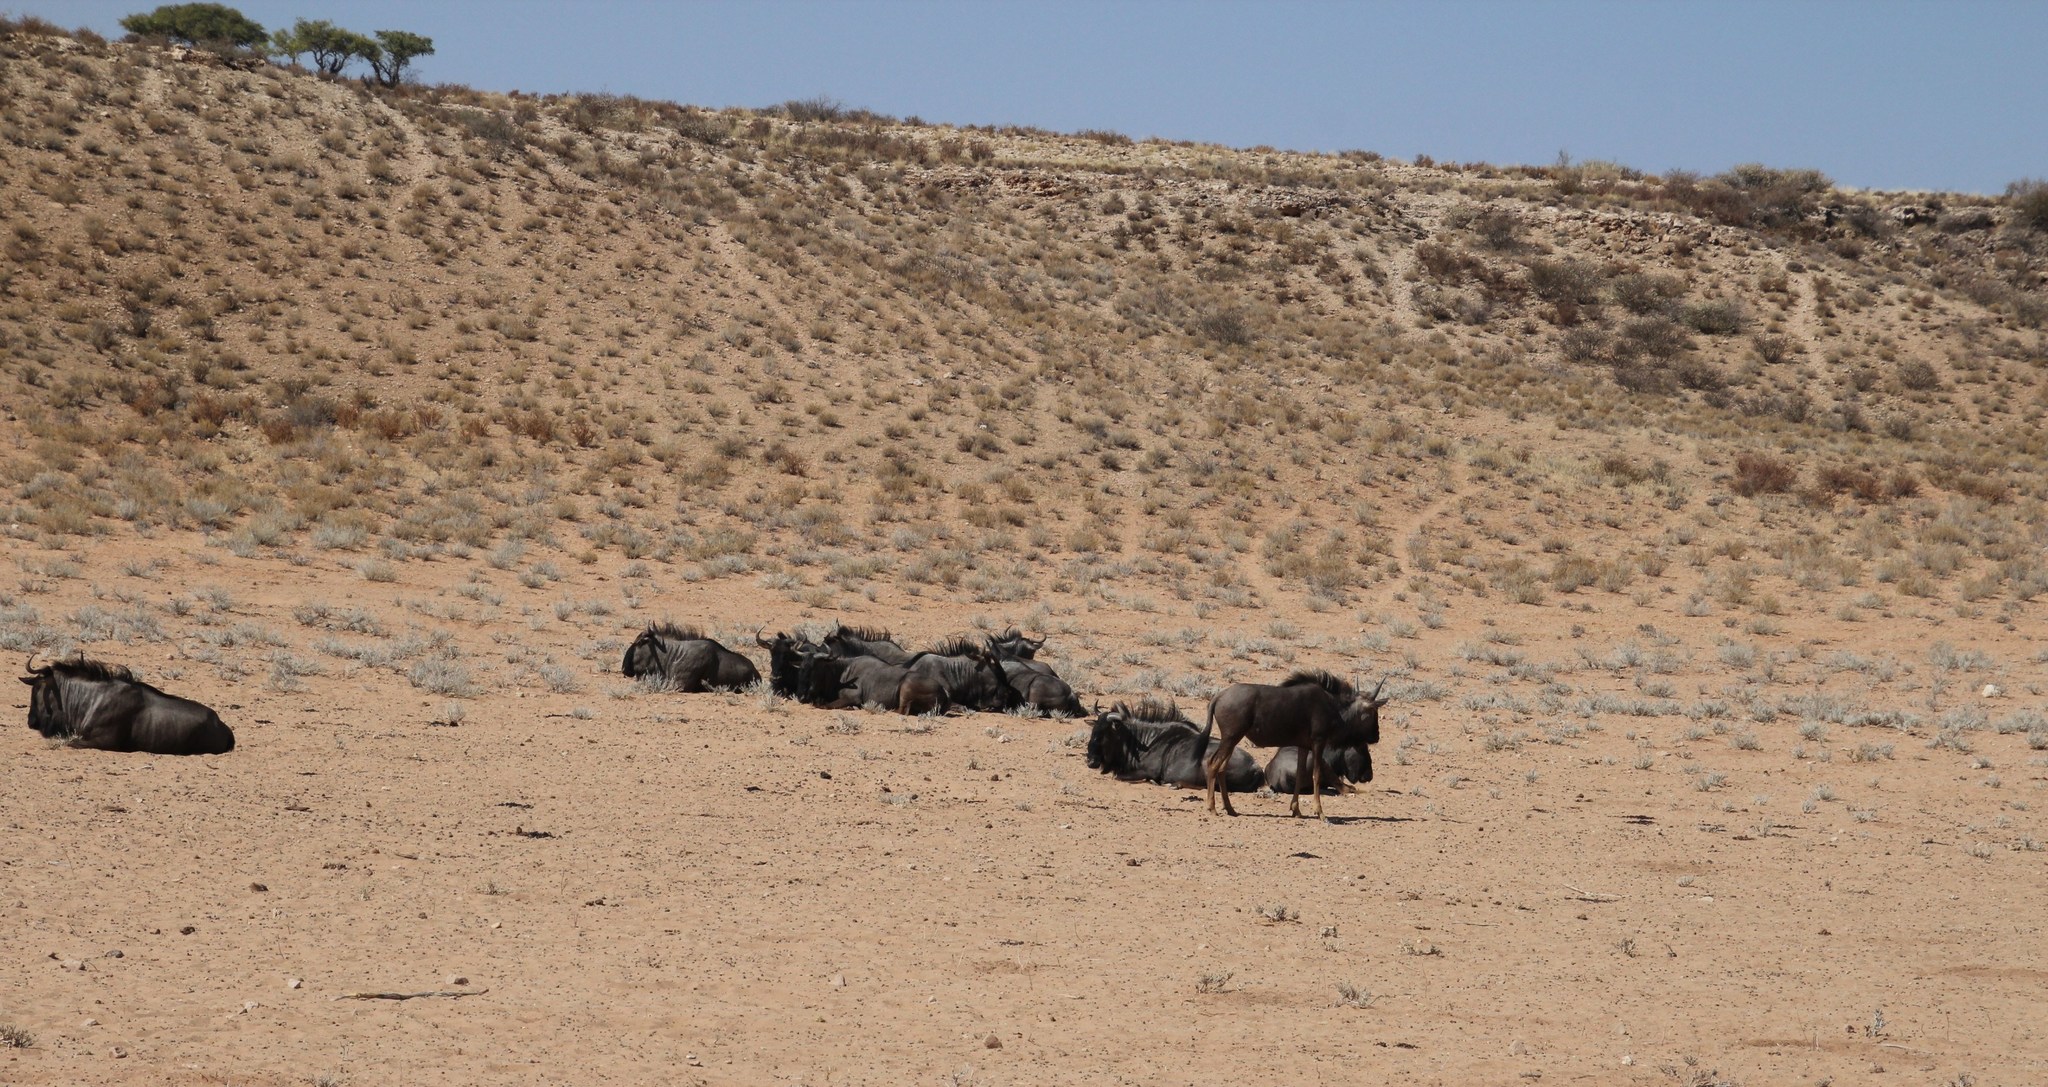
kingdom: Animalia
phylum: Chordata
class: Mammalia
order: Artiodactyla
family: Bovidae
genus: Connochaetes
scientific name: Connochaetes taurinus
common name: Blue wildebeest
